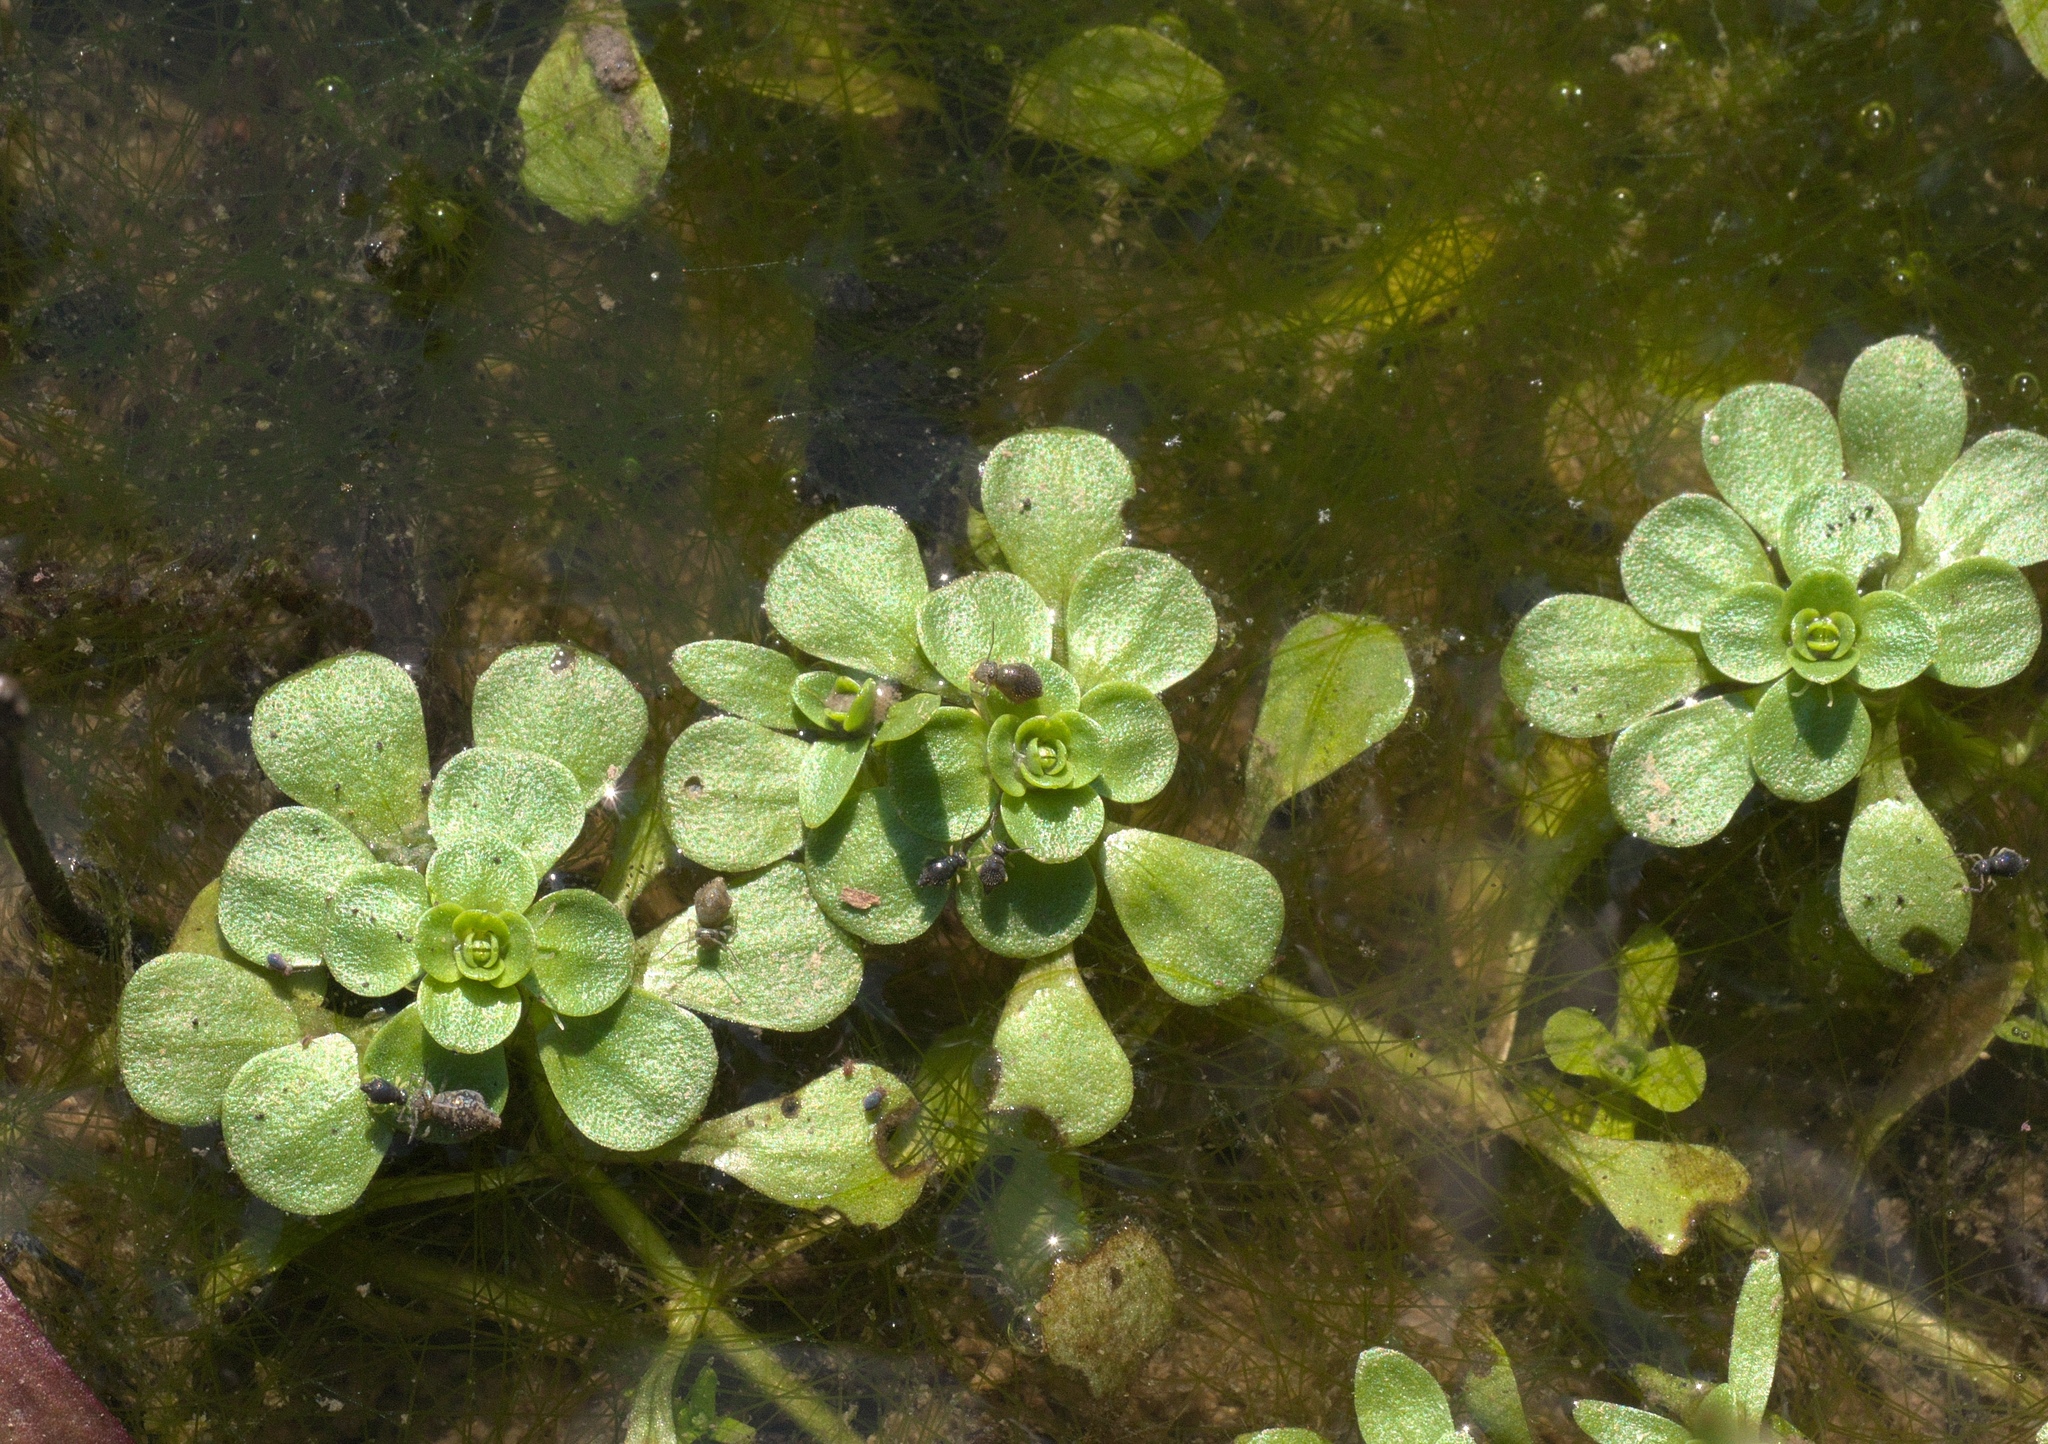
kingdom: Plantae
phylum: Tracheophyta
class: Magnoliopsida
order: Lamiales
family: Plantaginaceae
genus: Callitriche
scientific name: Callitriche heterophylla
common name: Two-headed water-starwort
